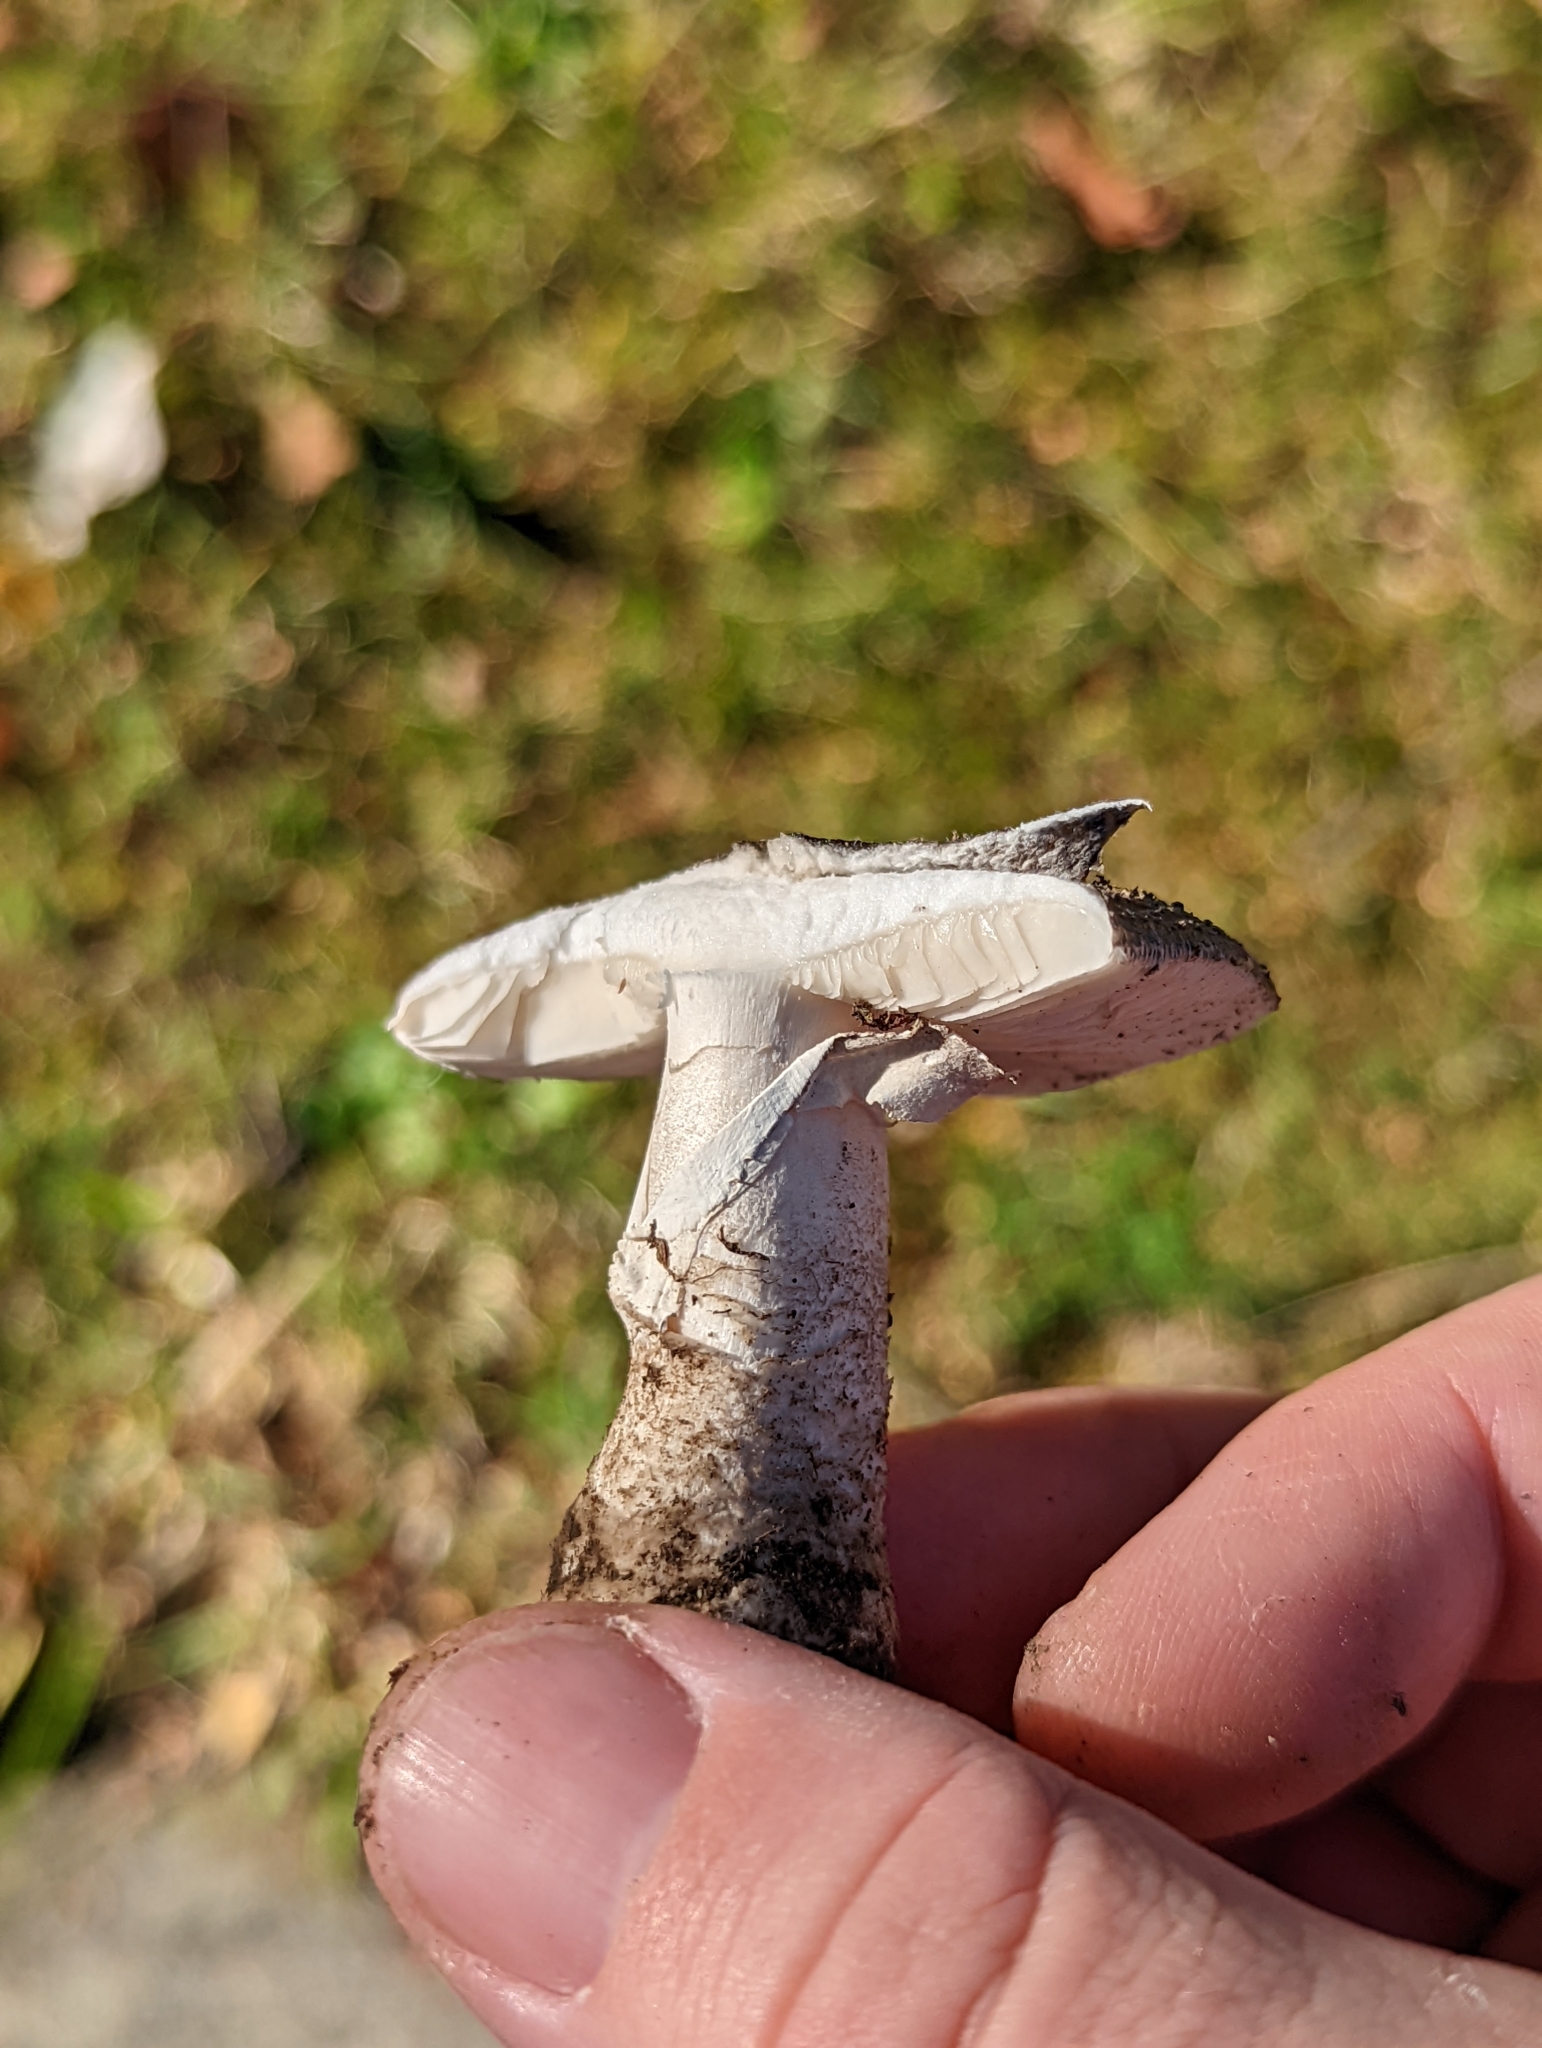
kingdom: Fungi
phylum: Basidiomycota
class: Agaricomycetes
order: Agaricales
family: Amanitaceae
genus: Amanita
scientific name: Amanita excelsa
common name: European false blusher
